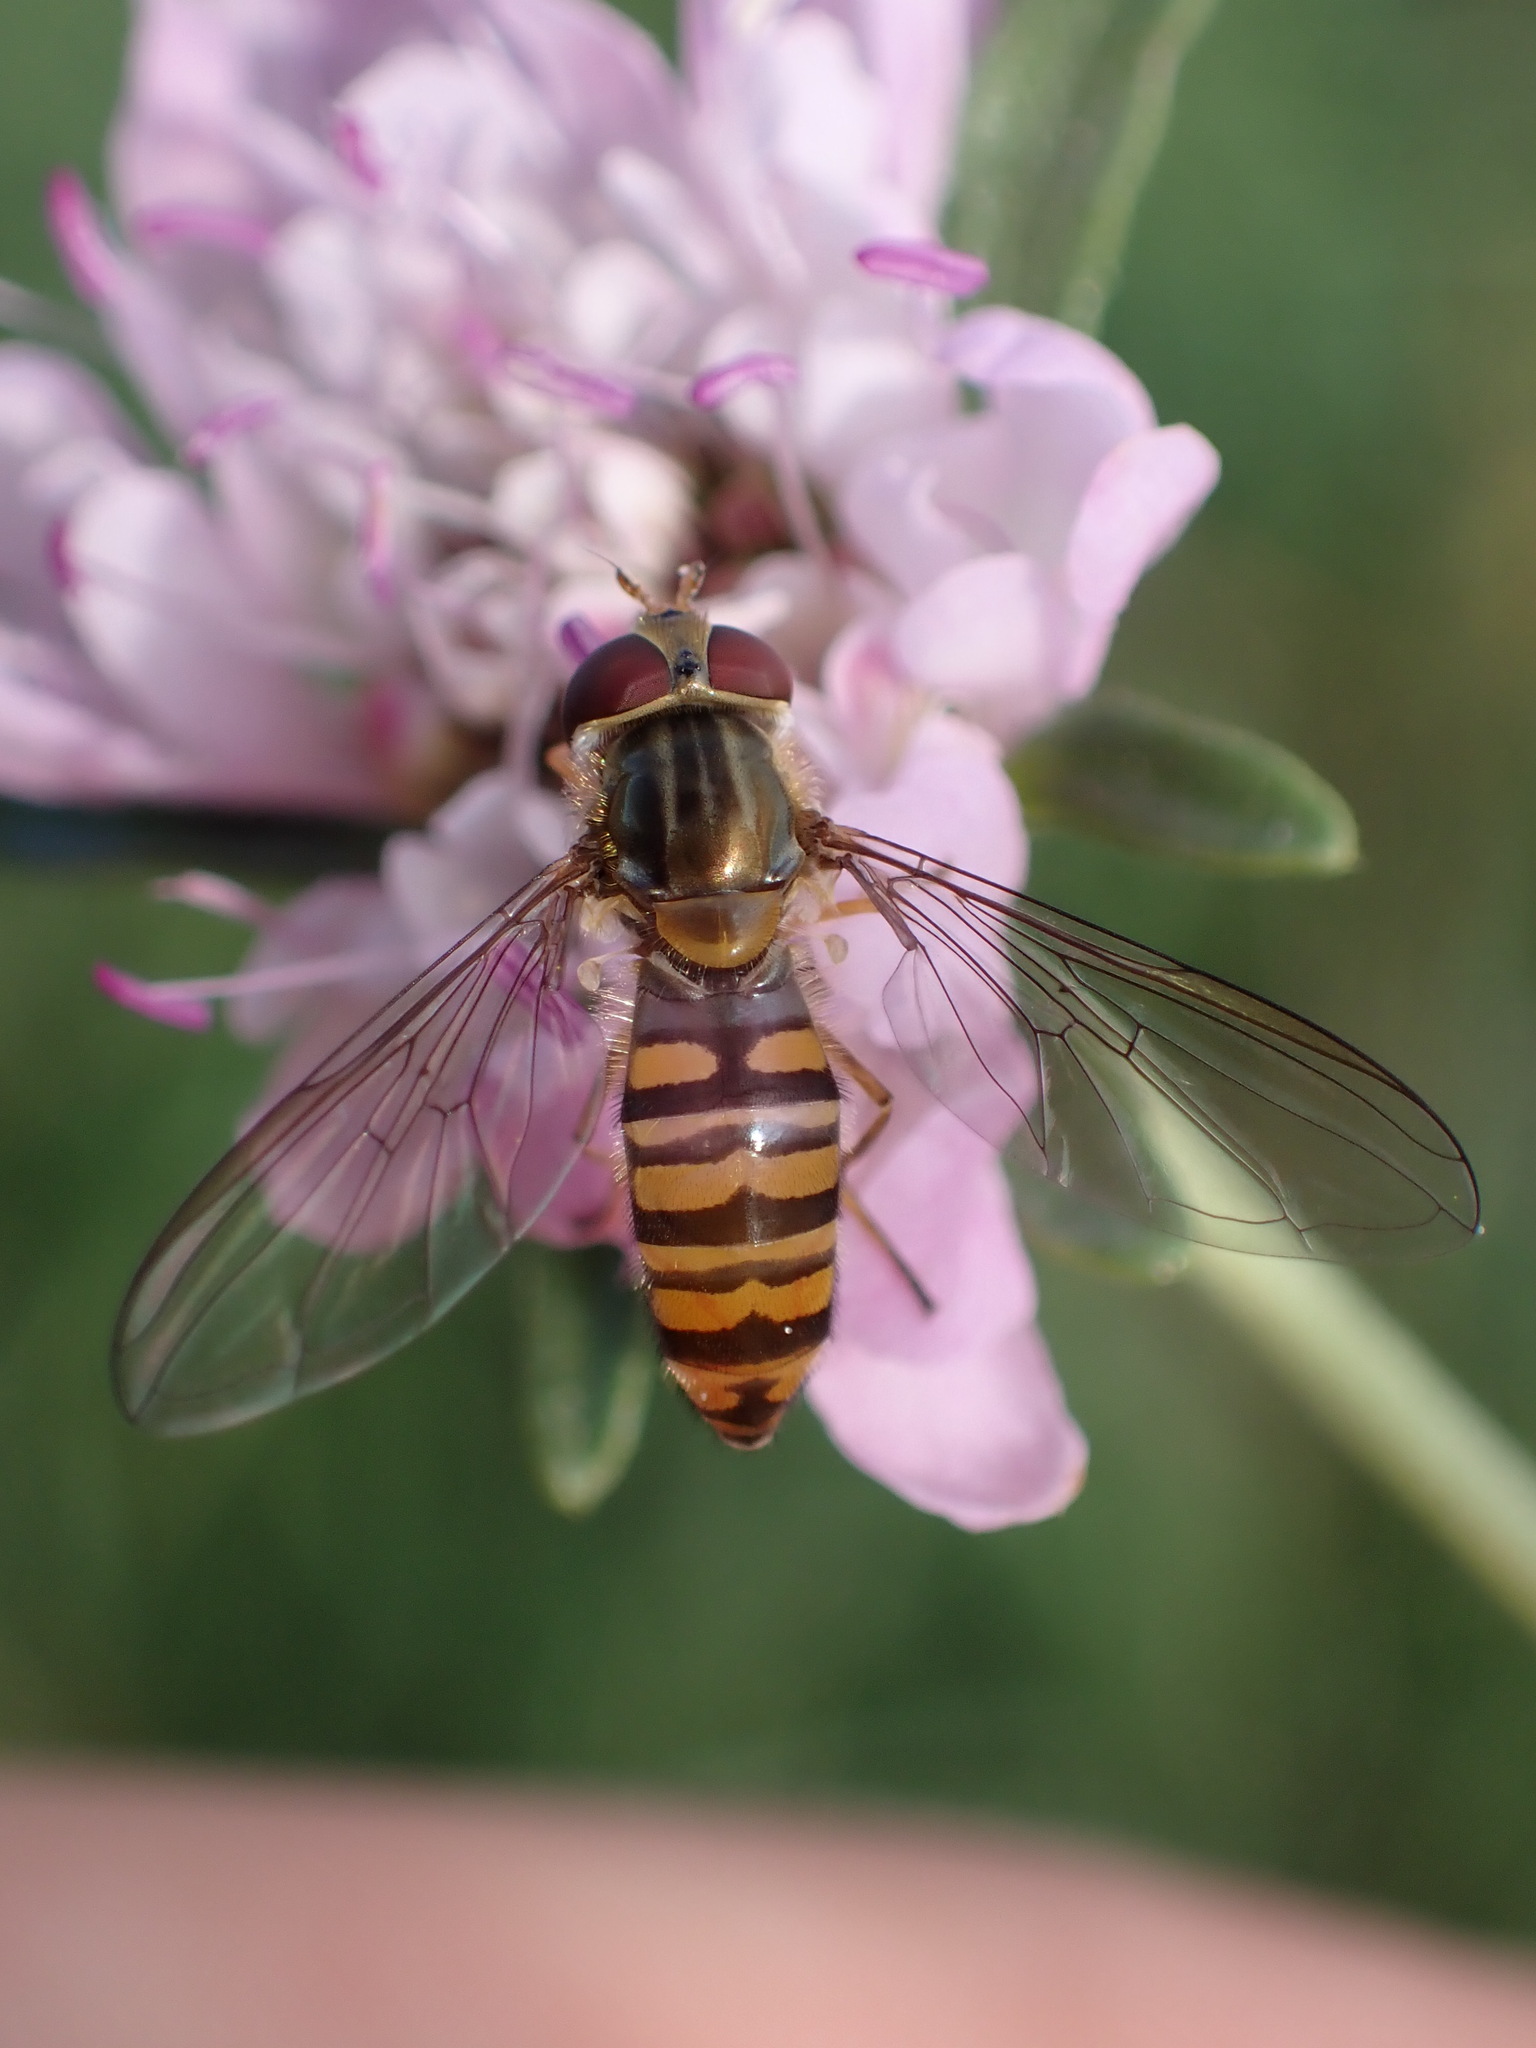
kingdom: Animalia
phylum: Arthropoda
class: Insecta
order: Diptera
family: Syrphidae
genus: Episyrphus
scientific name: Episyrphus balteatus
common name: Marmalade hoverfly
